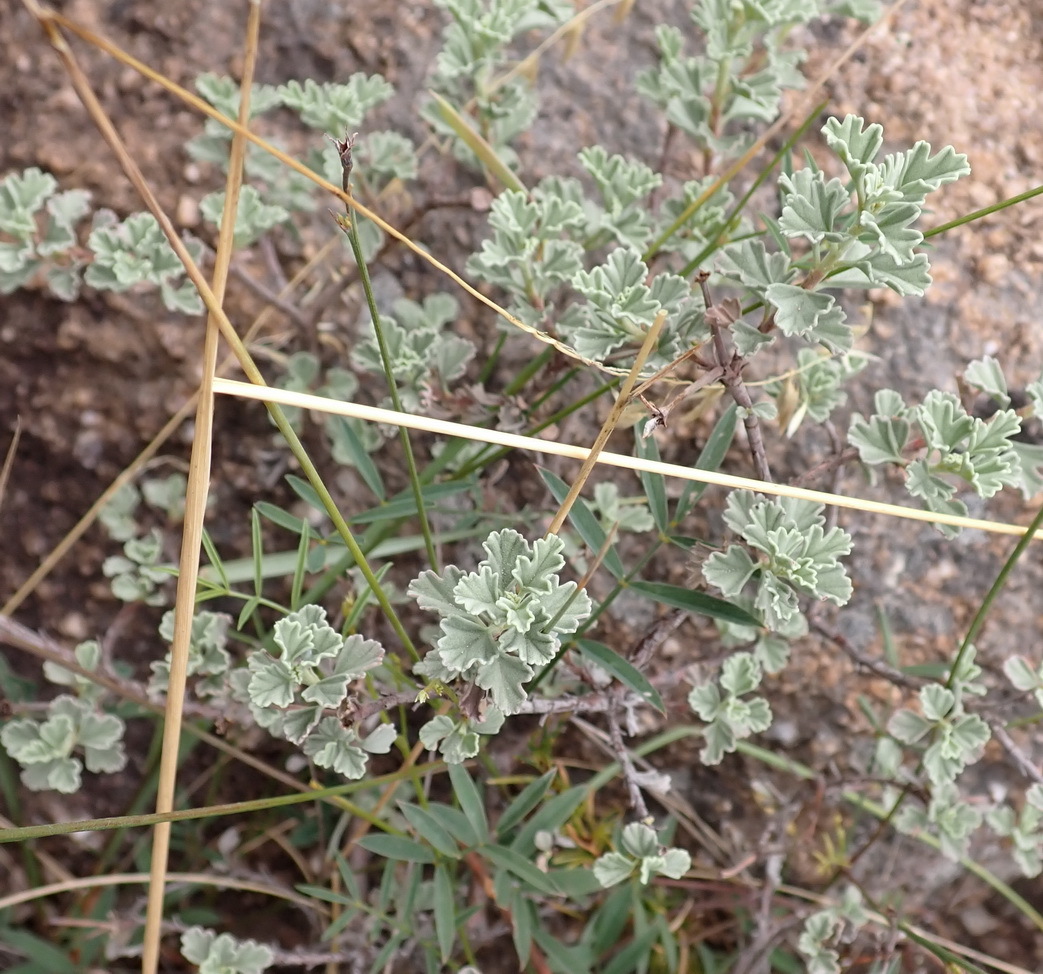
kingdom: Plantae
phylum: Tracheophyta
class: Magnoliopsida
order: Geraniales
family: Geraniaceae
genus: Pelargonium
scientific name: Pelargonium exstipulatum
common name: Soft-leaf trifid pelargonium
